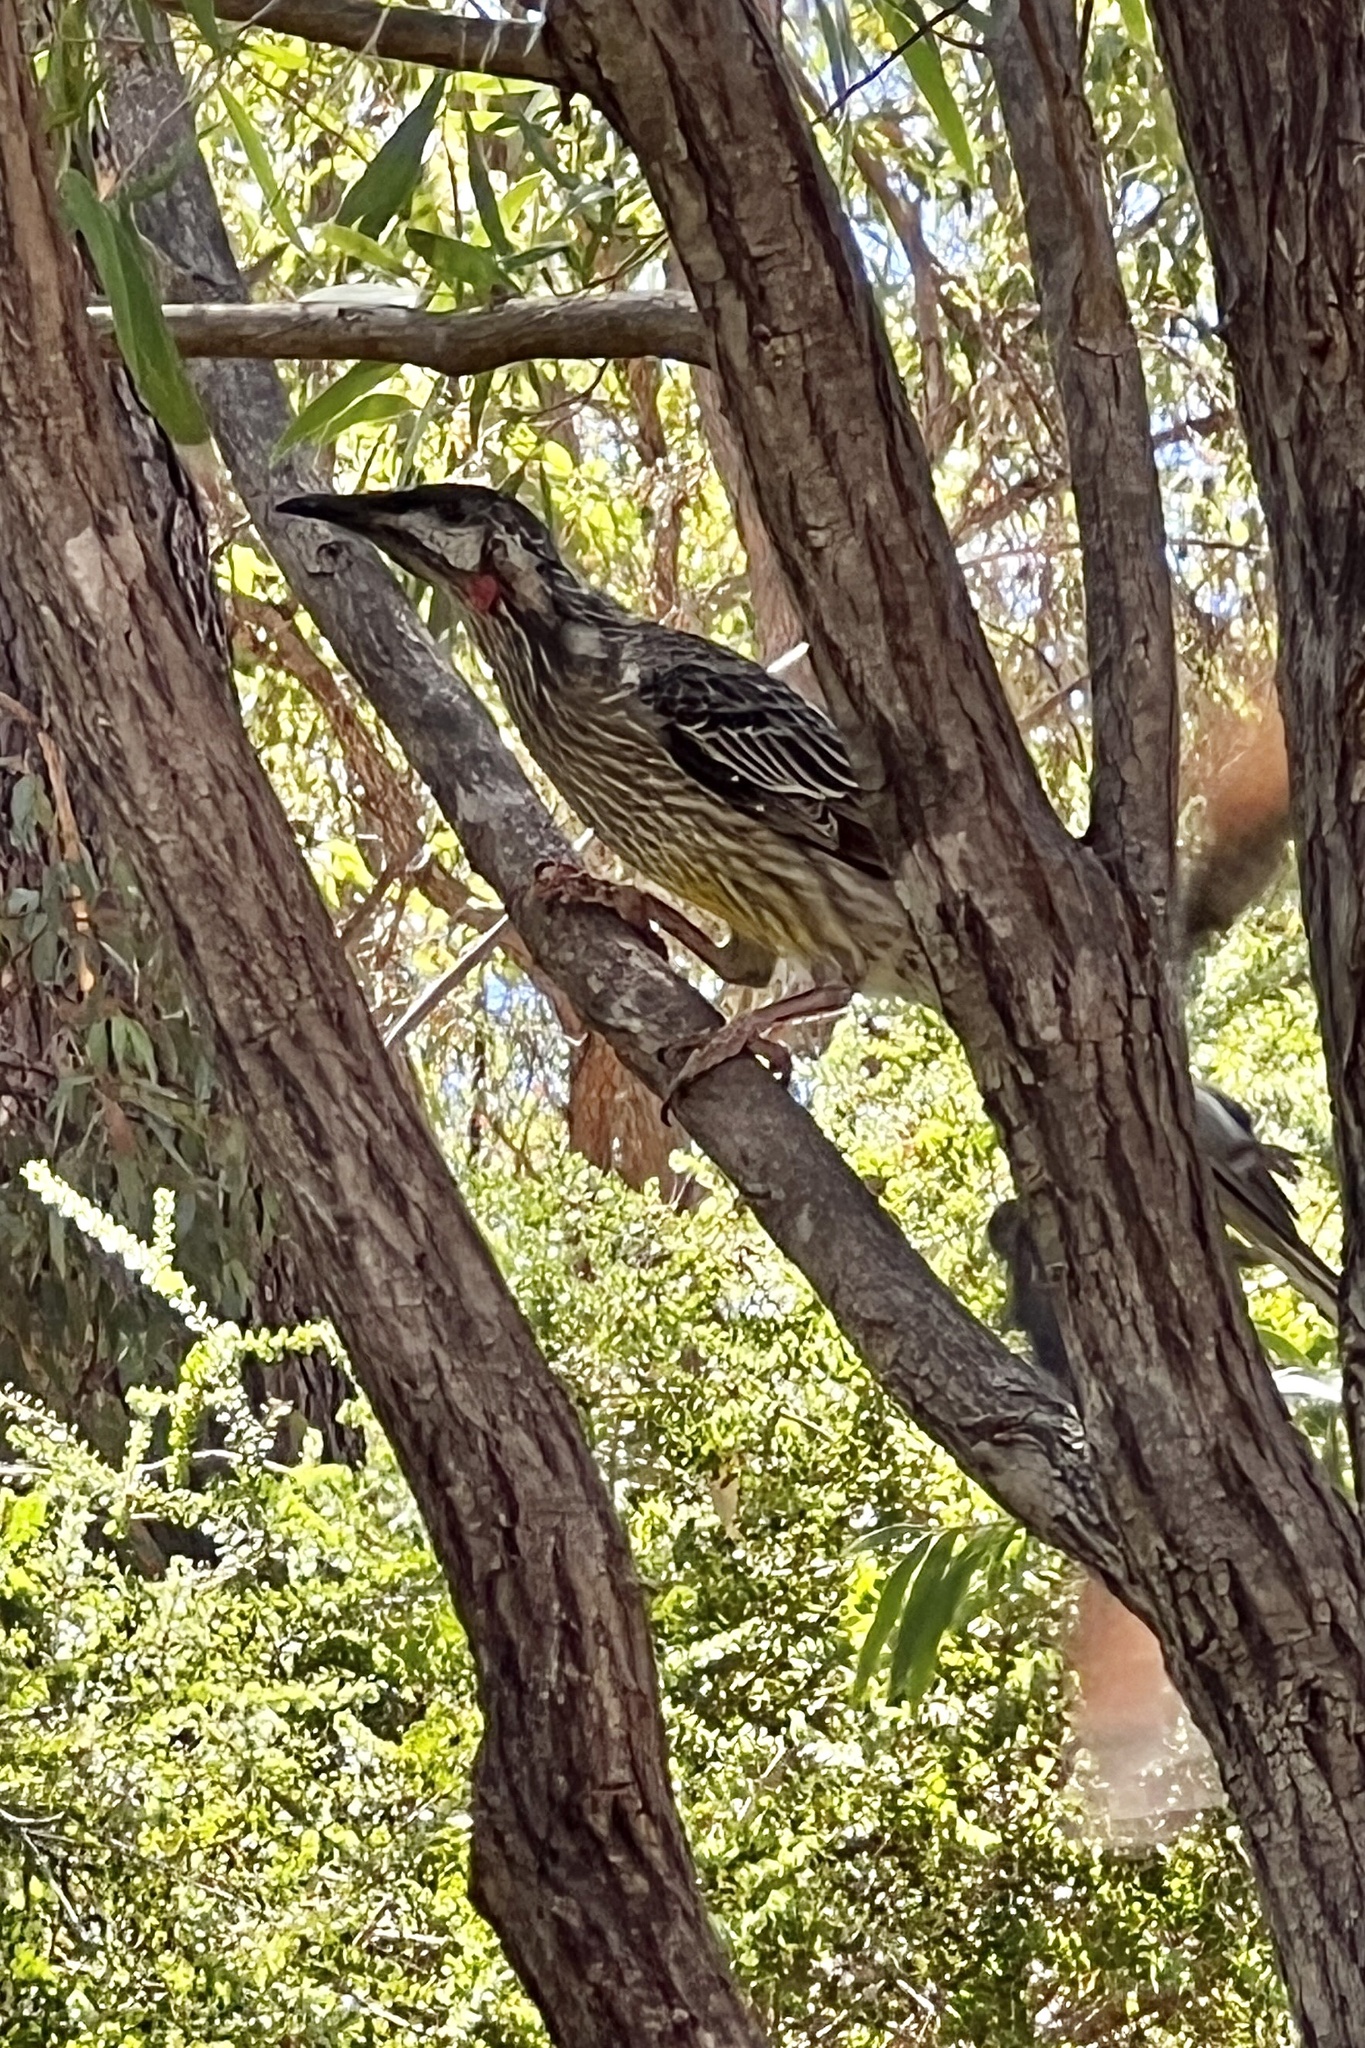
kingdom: Animalia
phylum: Chordata
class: Aves
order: Passeriformes
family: Meliphagidae
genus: Anthochaera
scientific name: Anthochaera carunculata
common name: Red wattlebird
